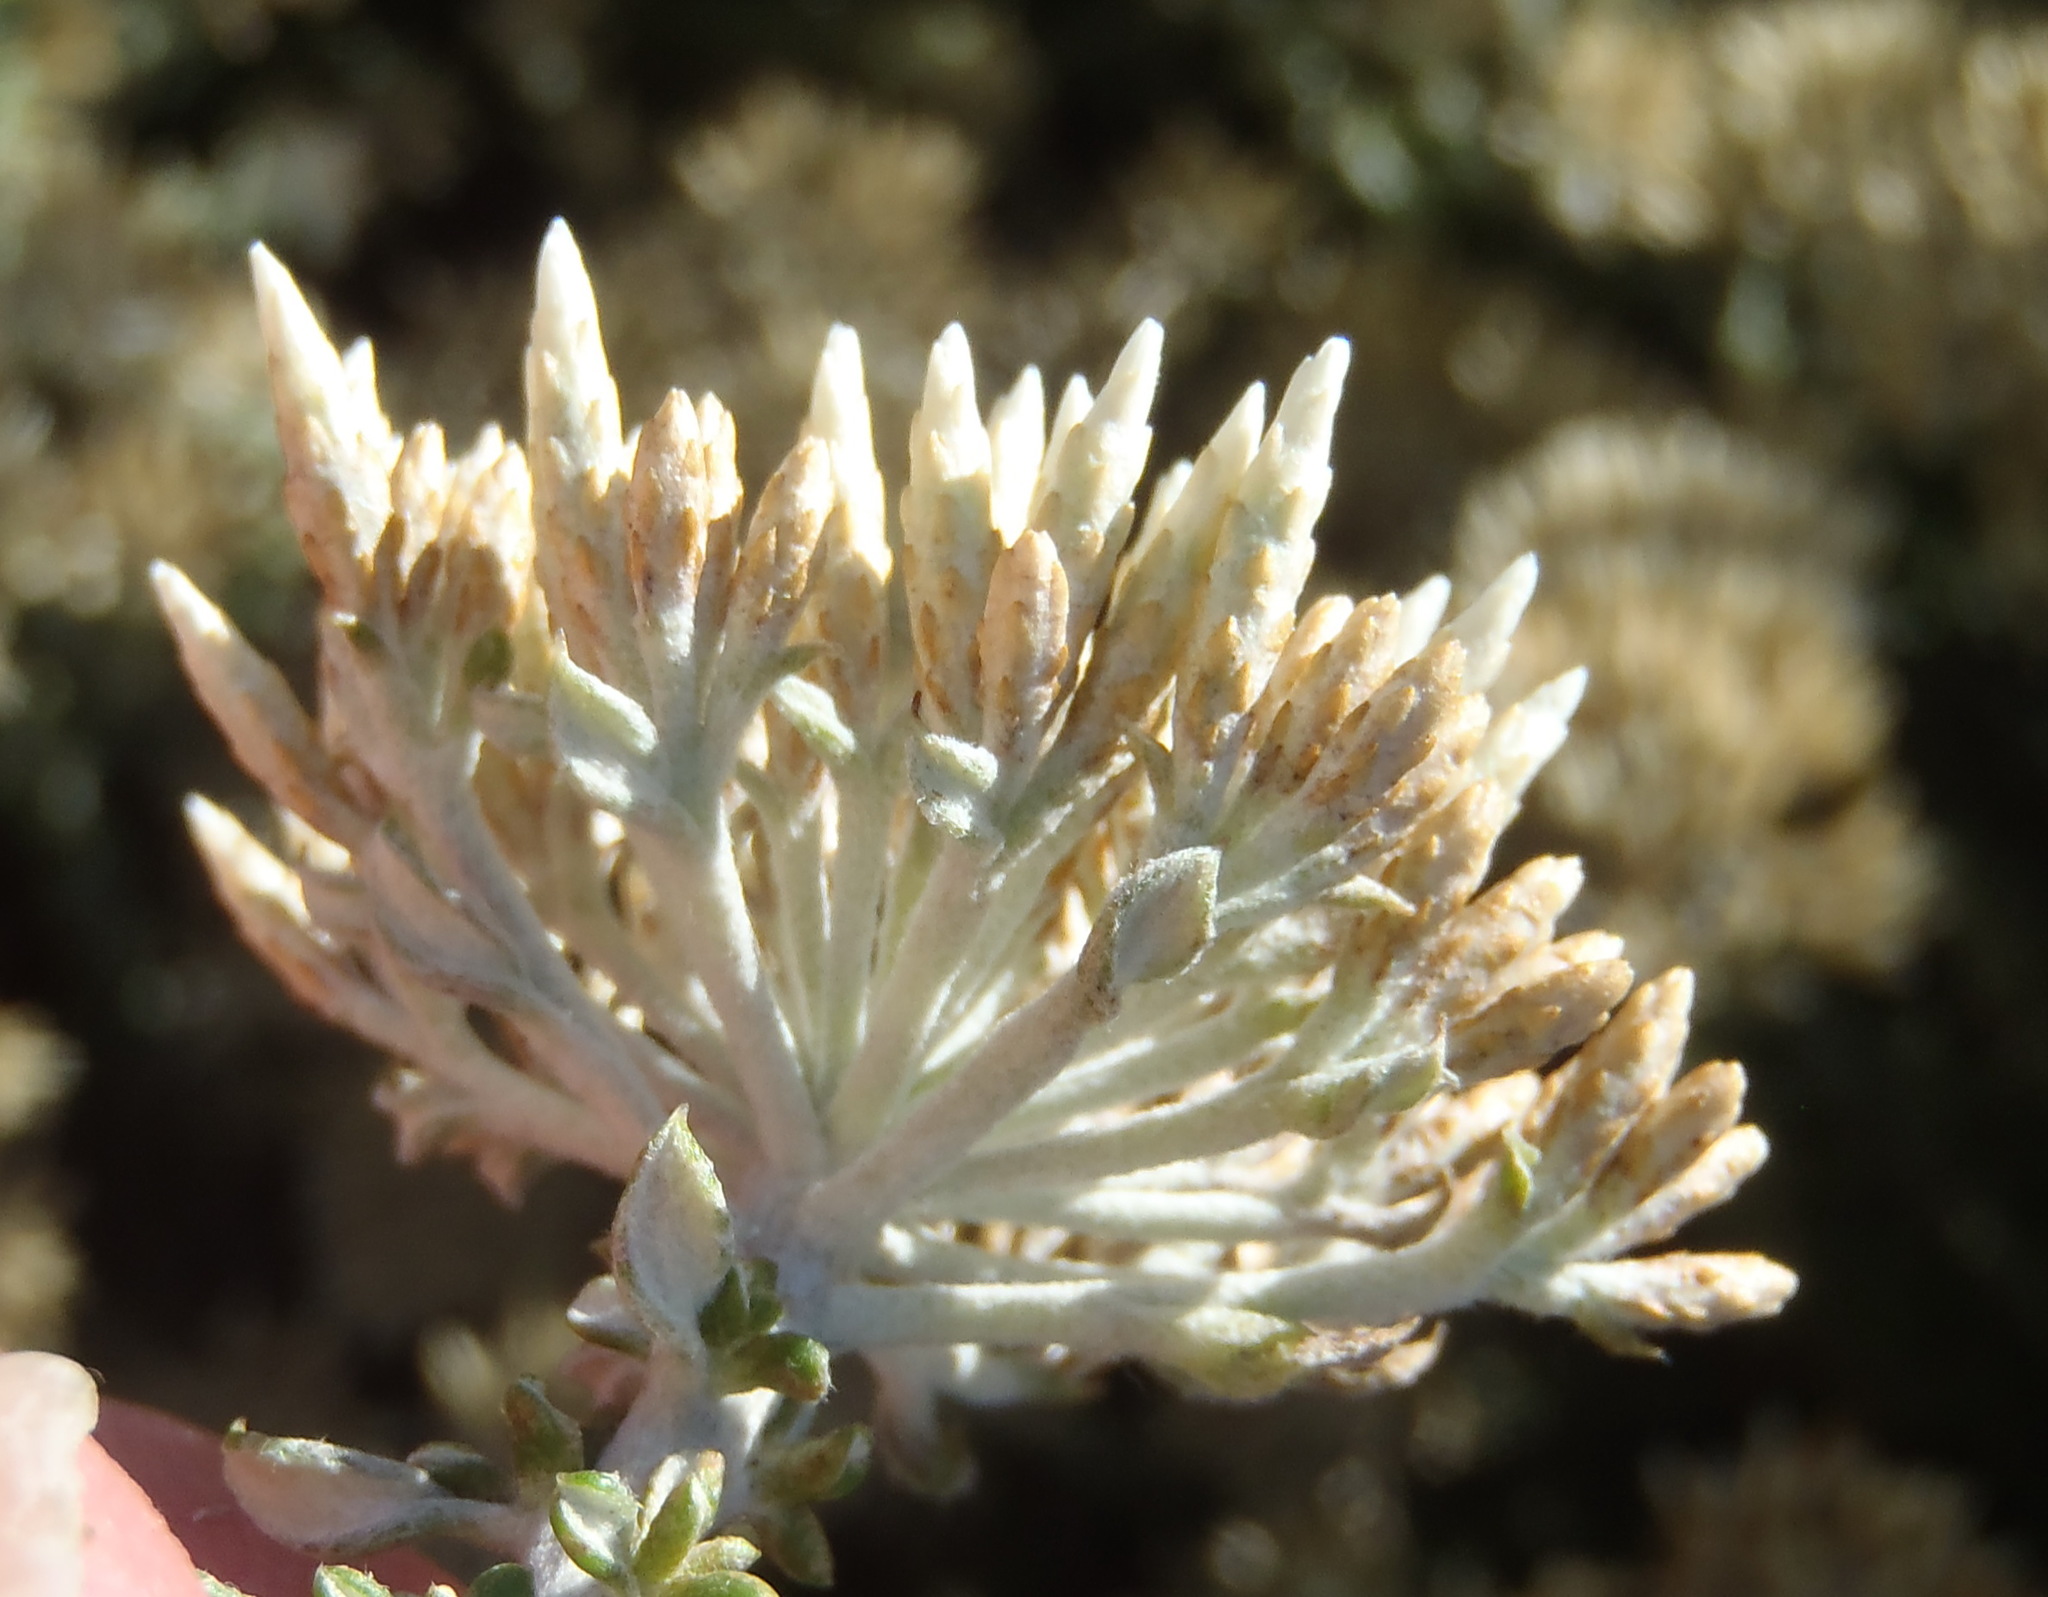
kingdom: Plantae
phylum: Tracheophyta
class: Magnoliopsida
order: Asterales
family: Asteraceae
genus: Metalasia
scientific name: Metalasia muricata
